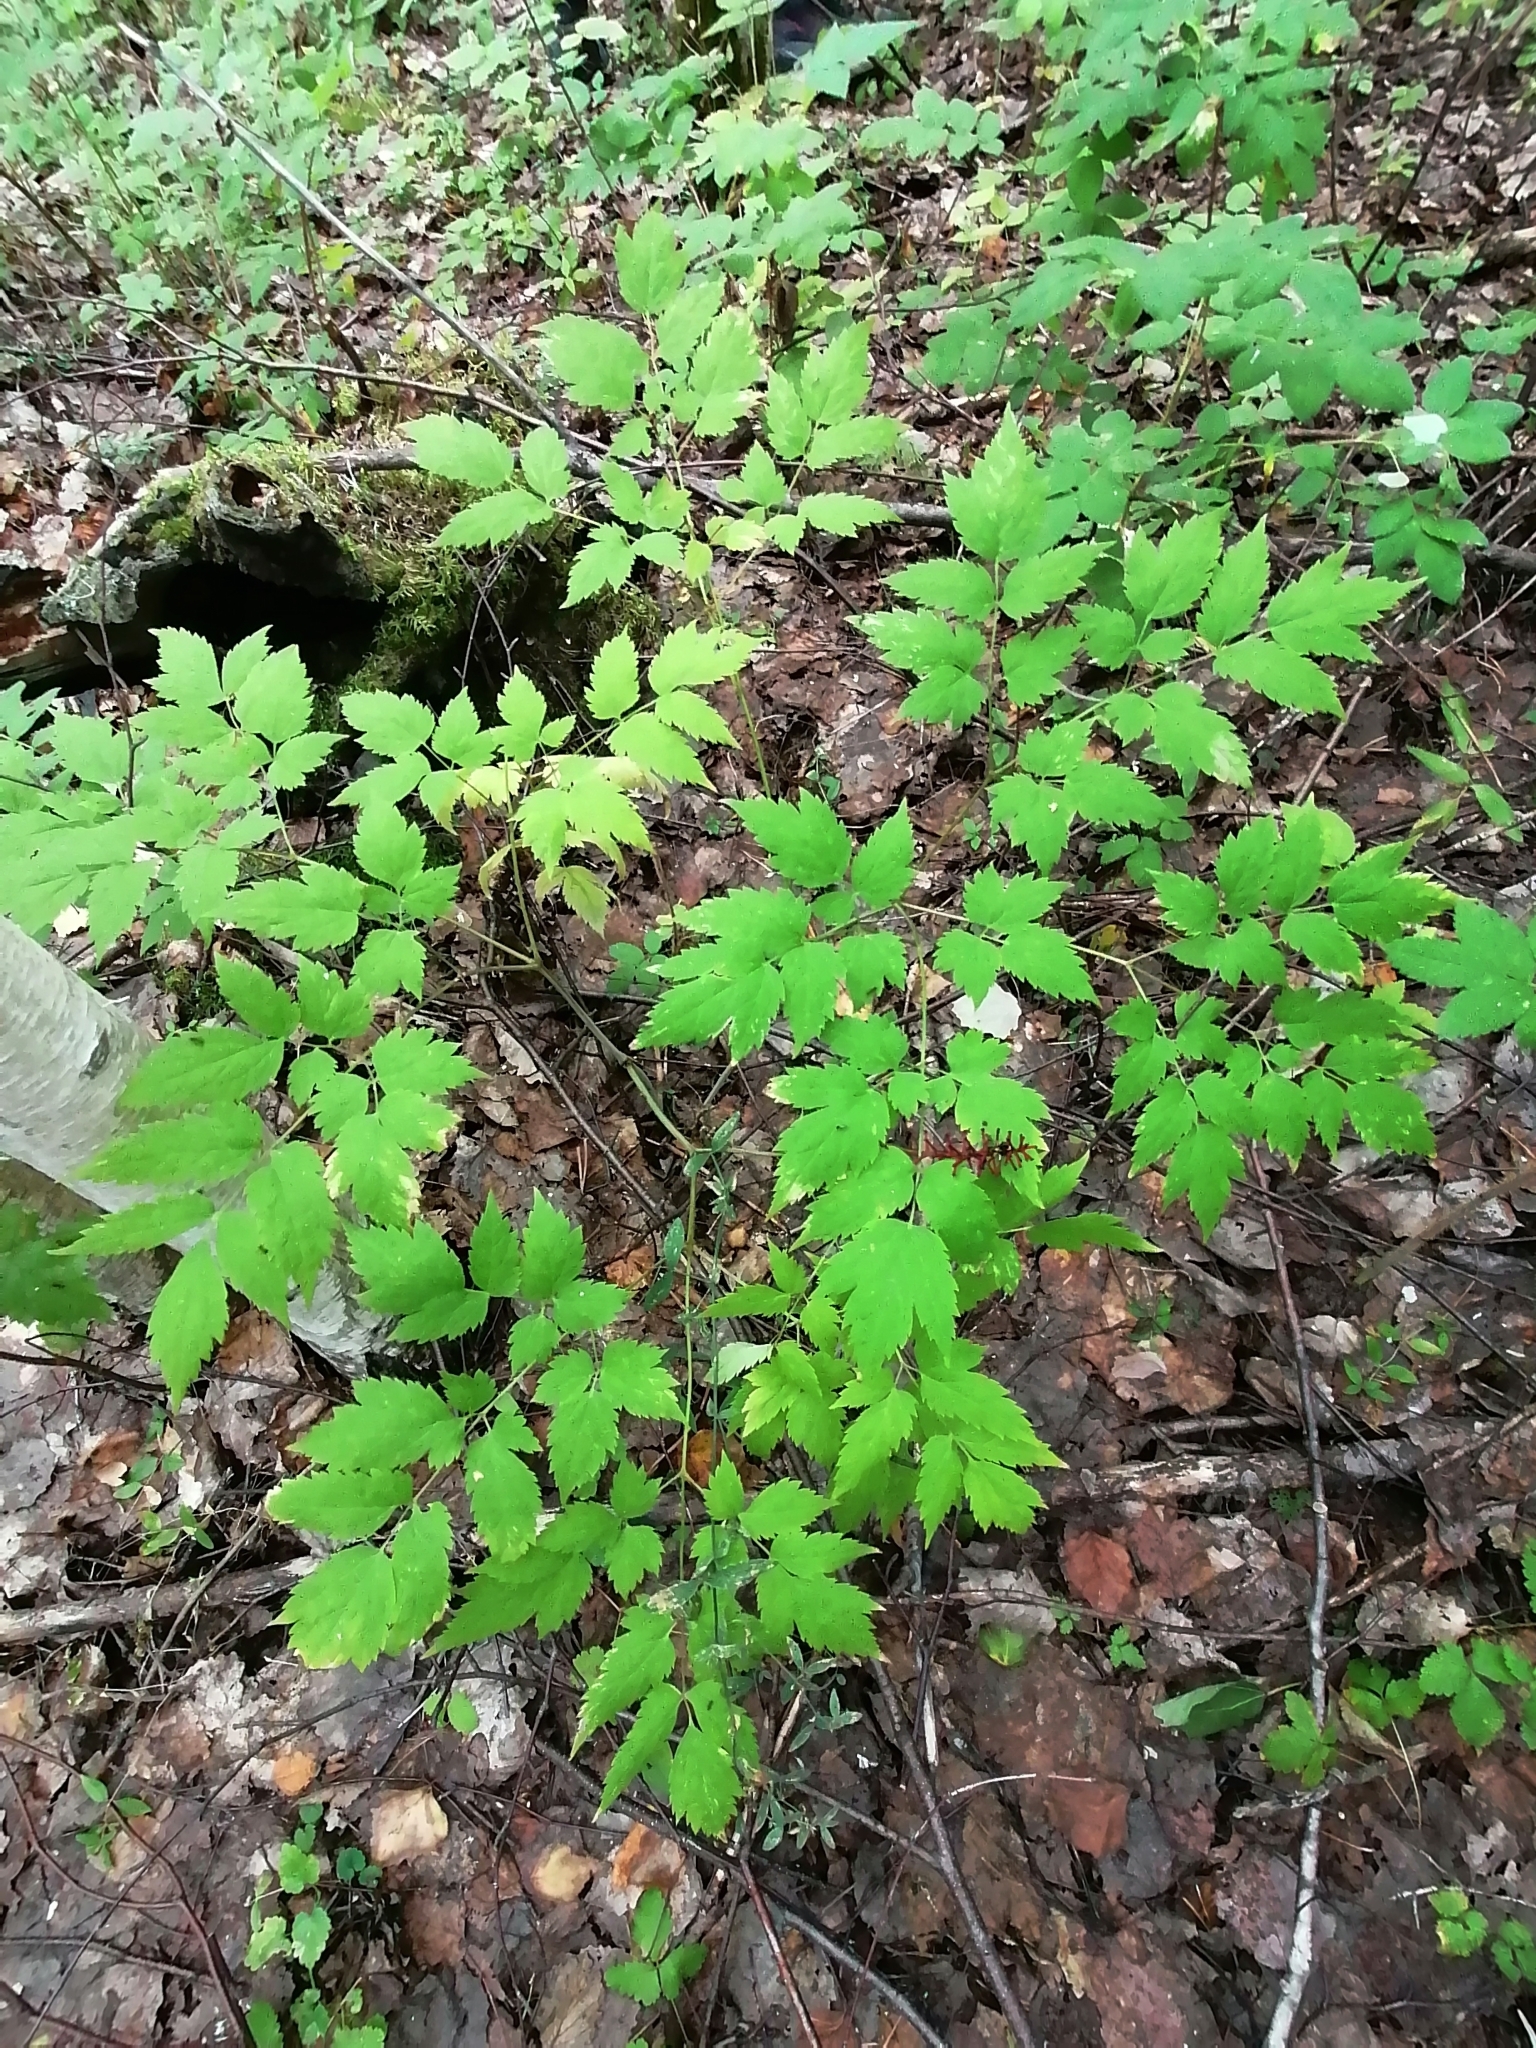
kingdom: Plantae
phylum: Tracheophyta
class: Magnoliopsida
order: Ranunculales
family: Ranunculaceae
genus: Actaea
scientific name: Actaea spicata
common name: Baneberry
